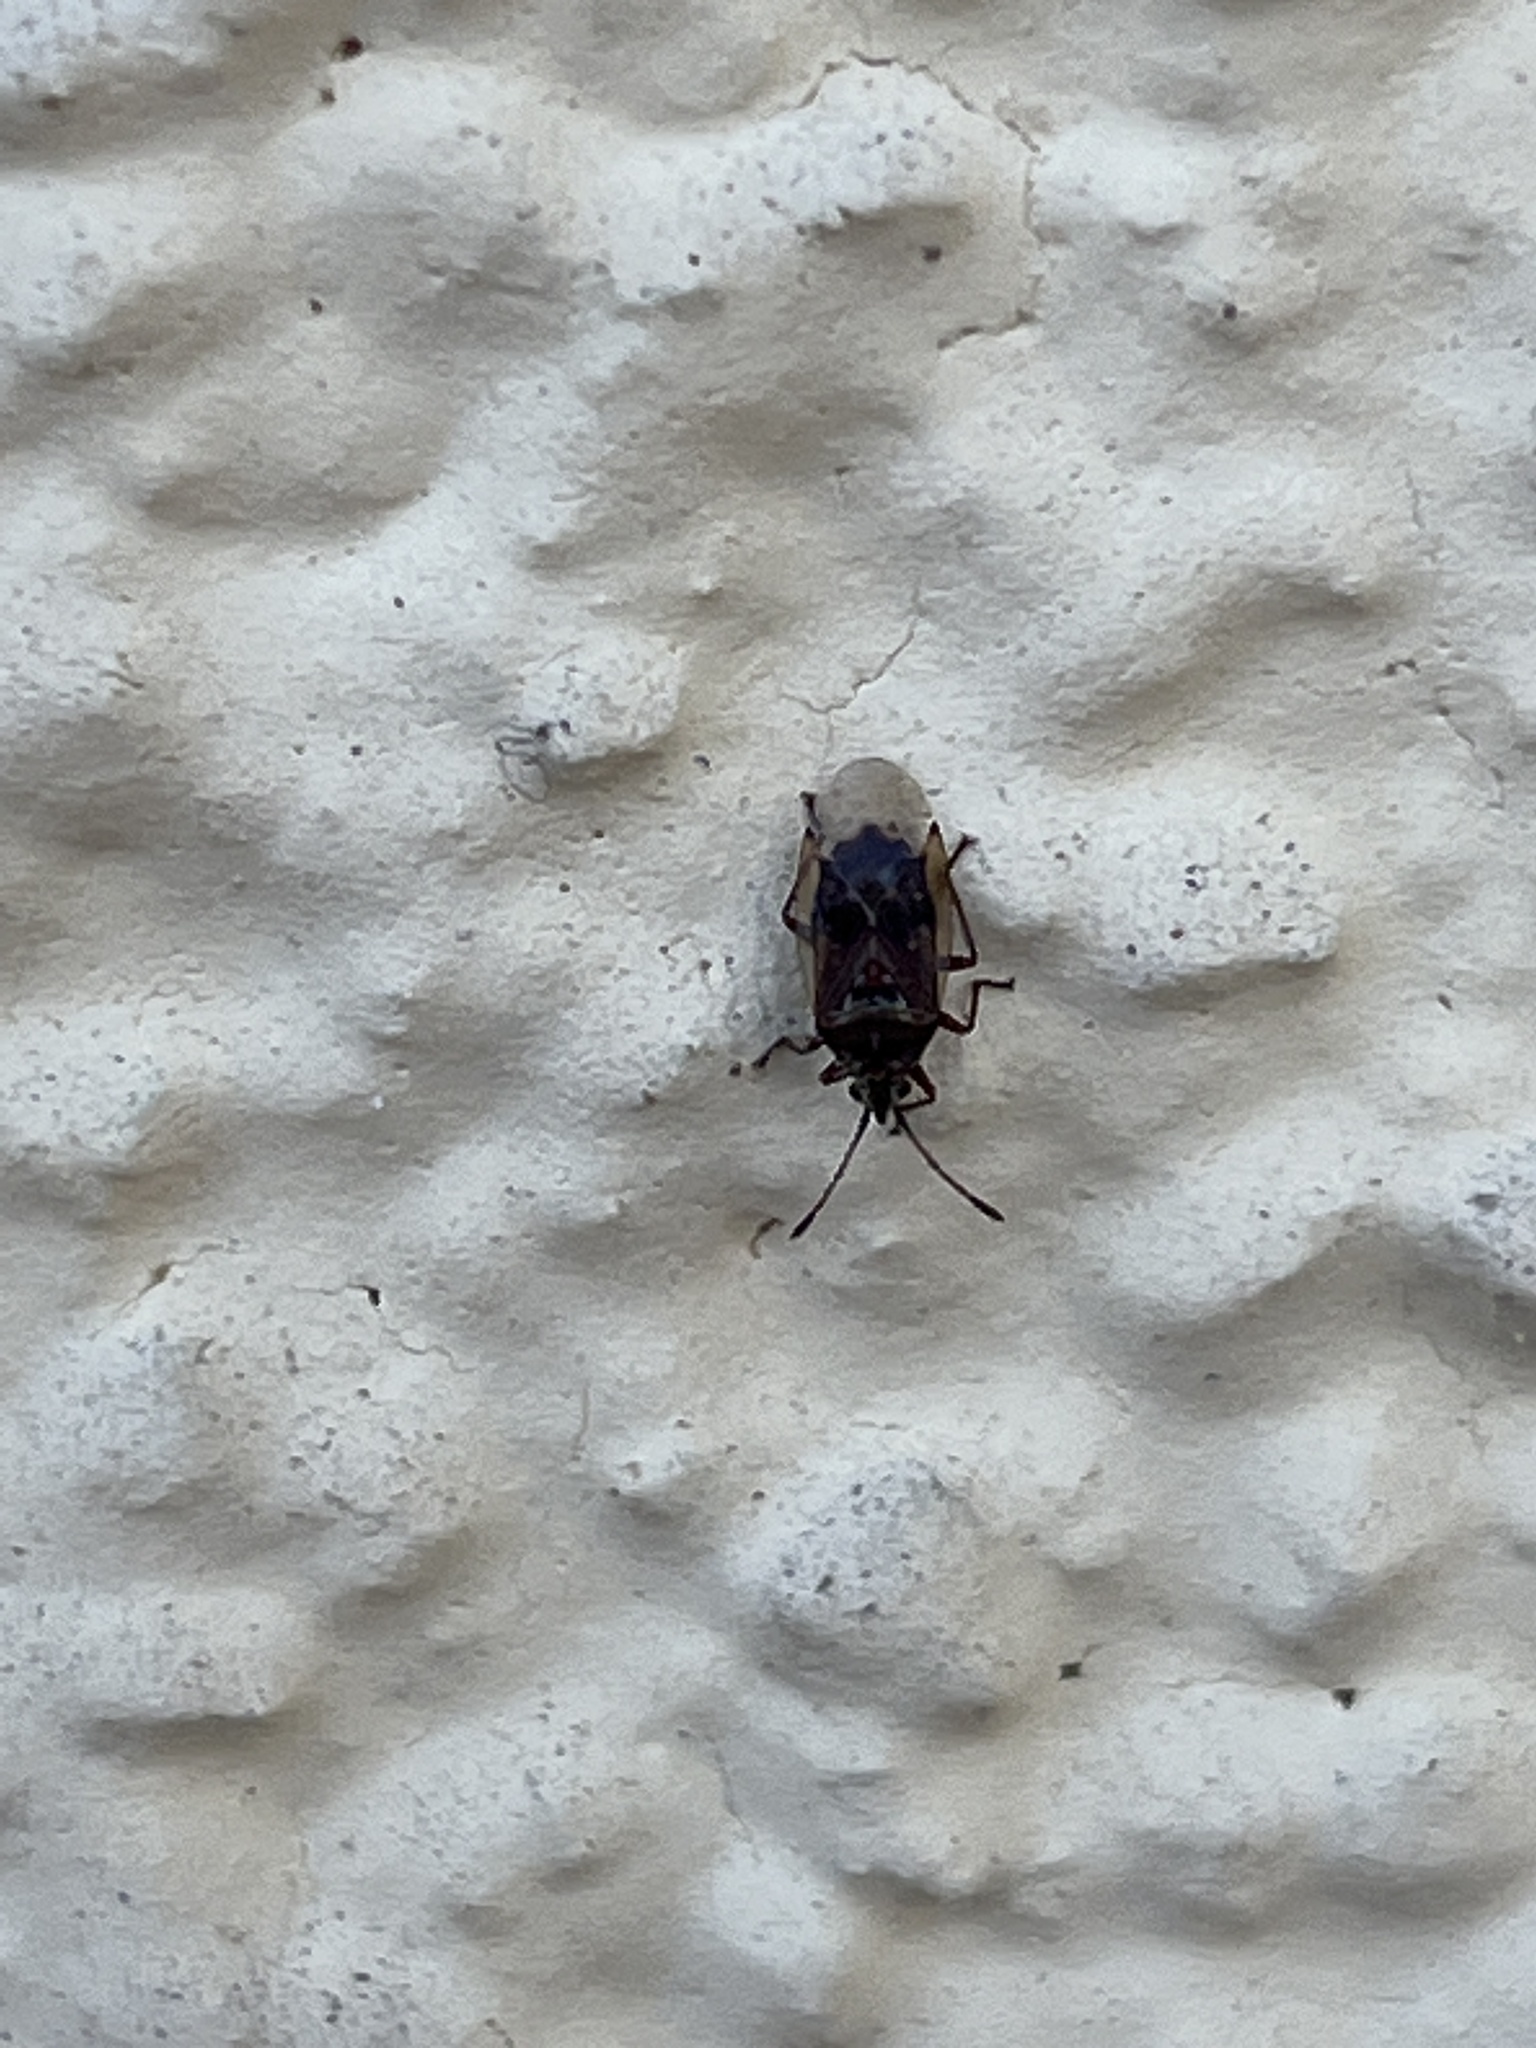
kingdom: Animalia
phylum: Arthropoda
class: Insecta
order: Hemiptera
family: Lygaeidae
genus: Kleidocerys
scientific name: Kleidocerys resedae
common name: Birch catkin bug
